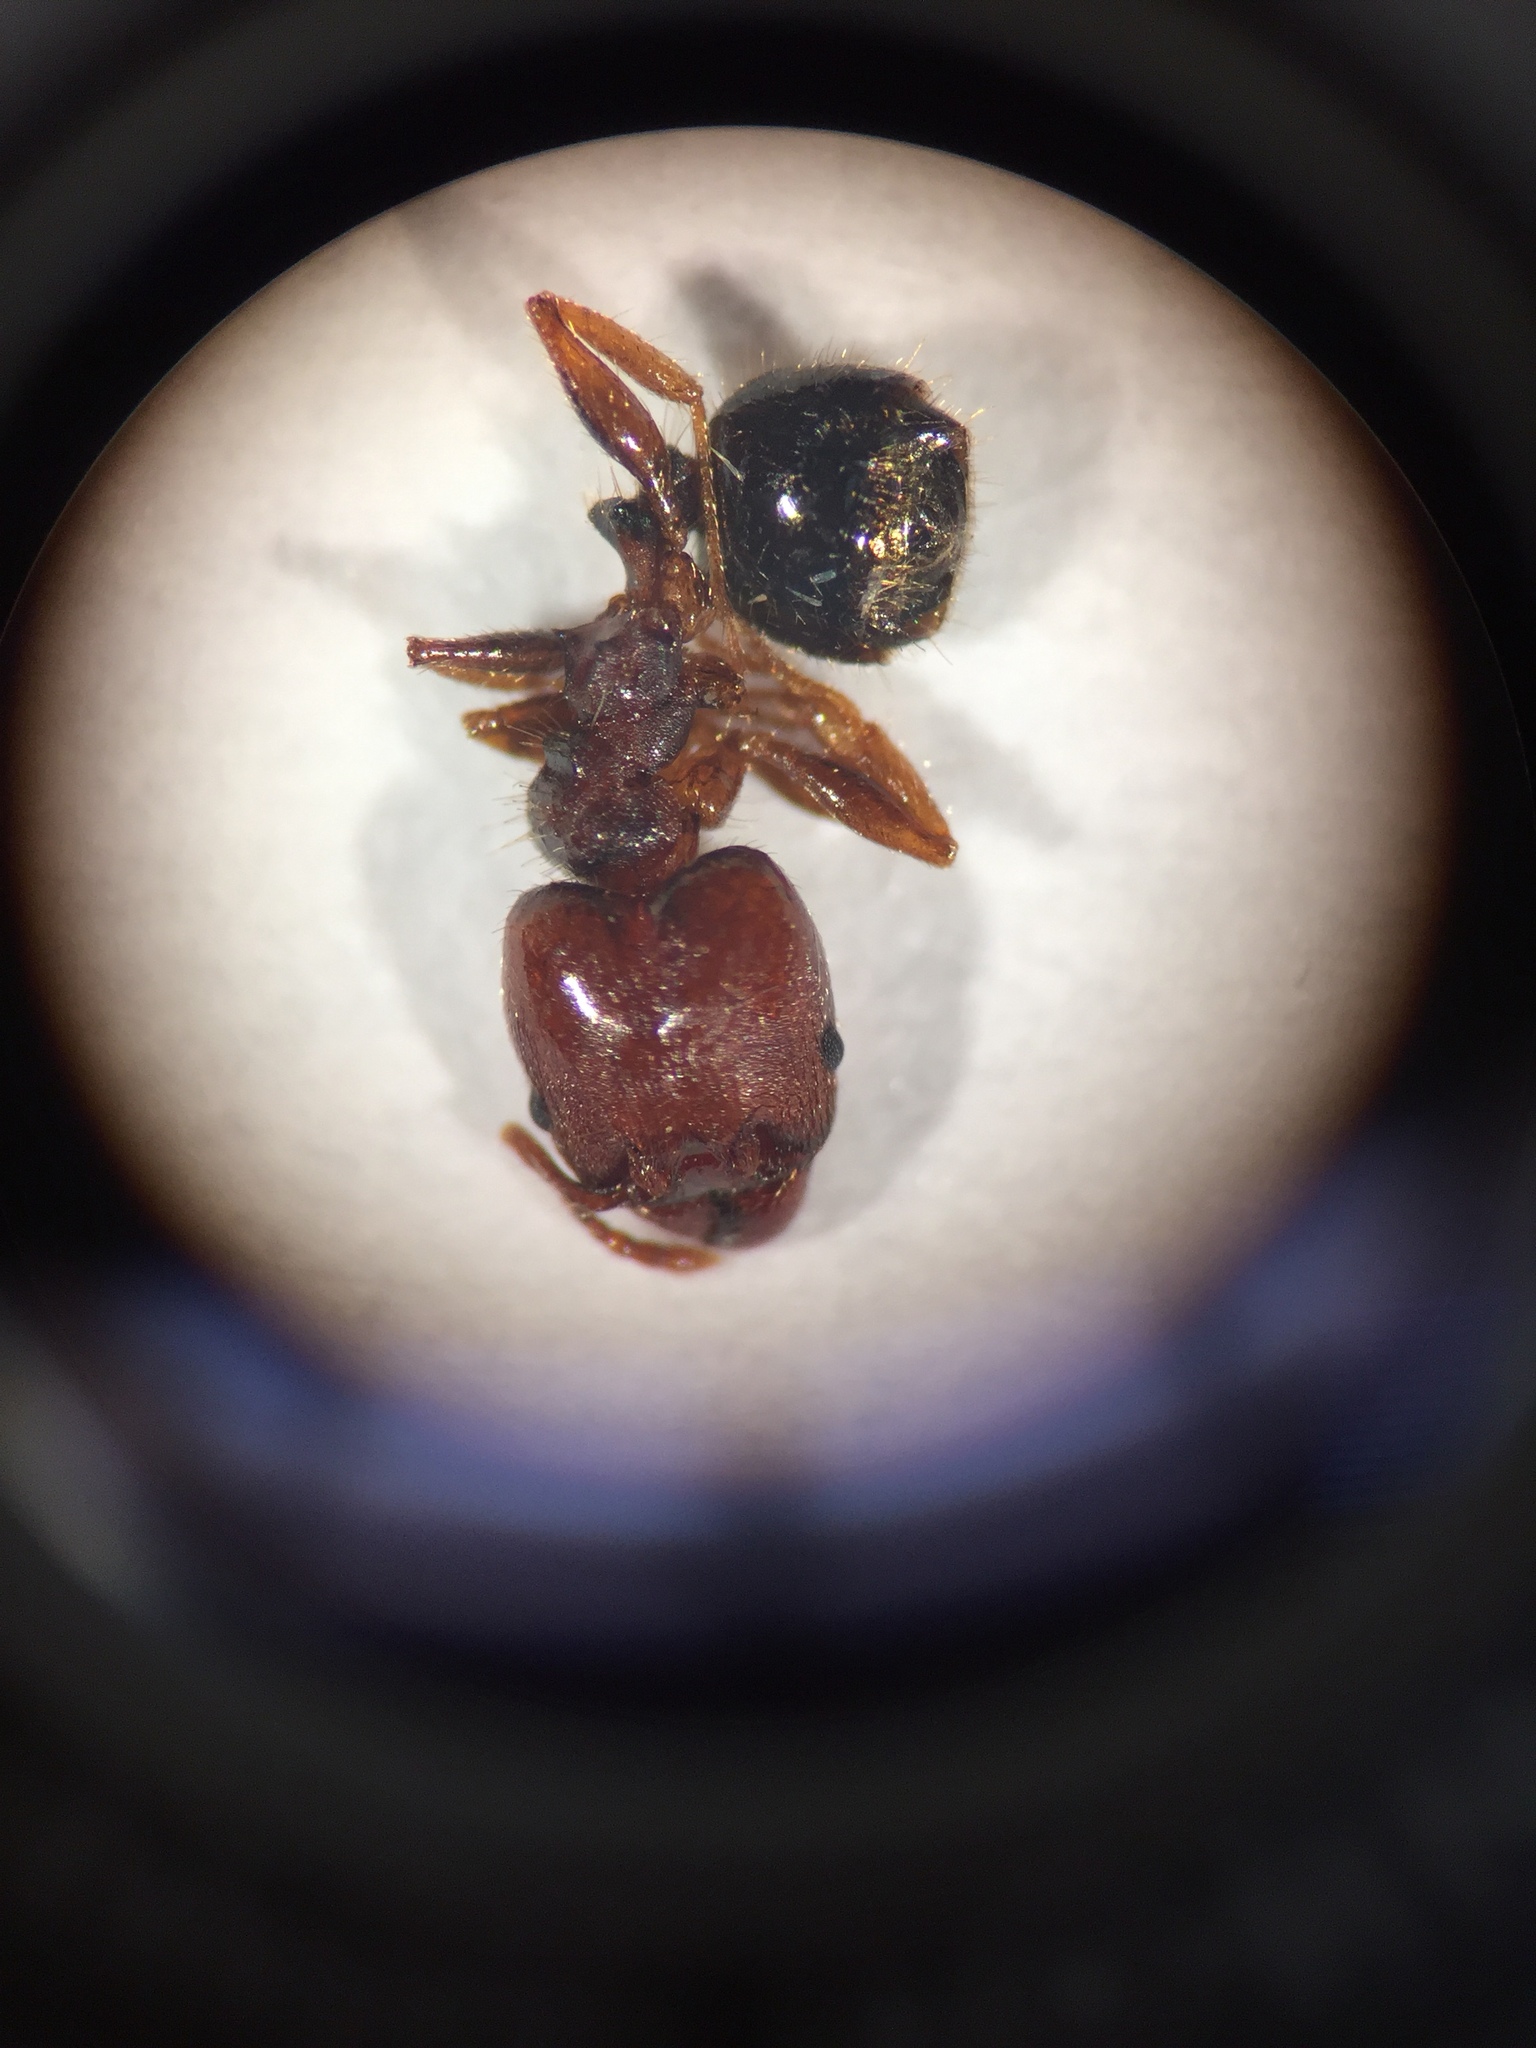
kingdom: Animalia
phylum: Arthropoda
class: Insecta
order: Hymenoptera
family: Formicidae
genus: Pheidole
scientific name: Pheidole tetra
